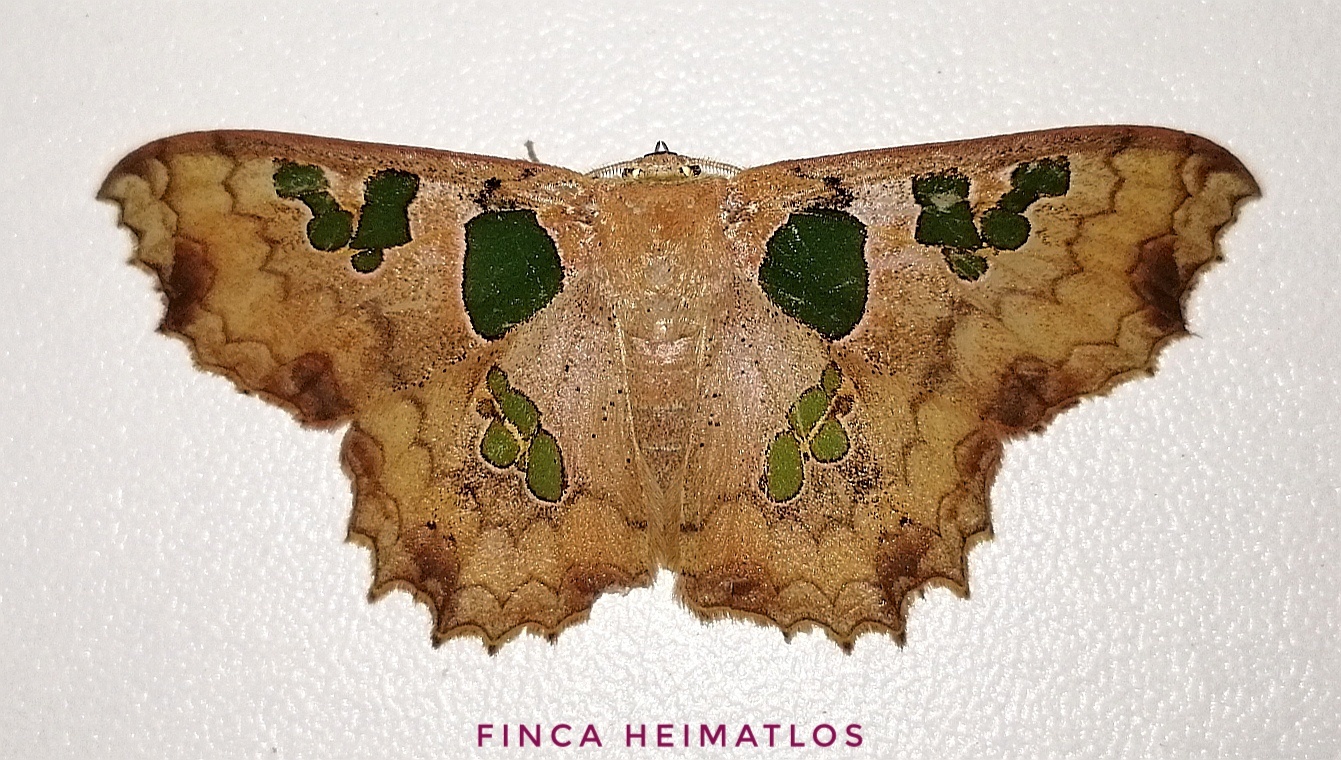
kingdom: Animalia
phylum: Arthropoda
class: Insecta
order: Lepidoptera
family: Geometridae
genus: Trygodes
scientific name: Trygodes amphion
